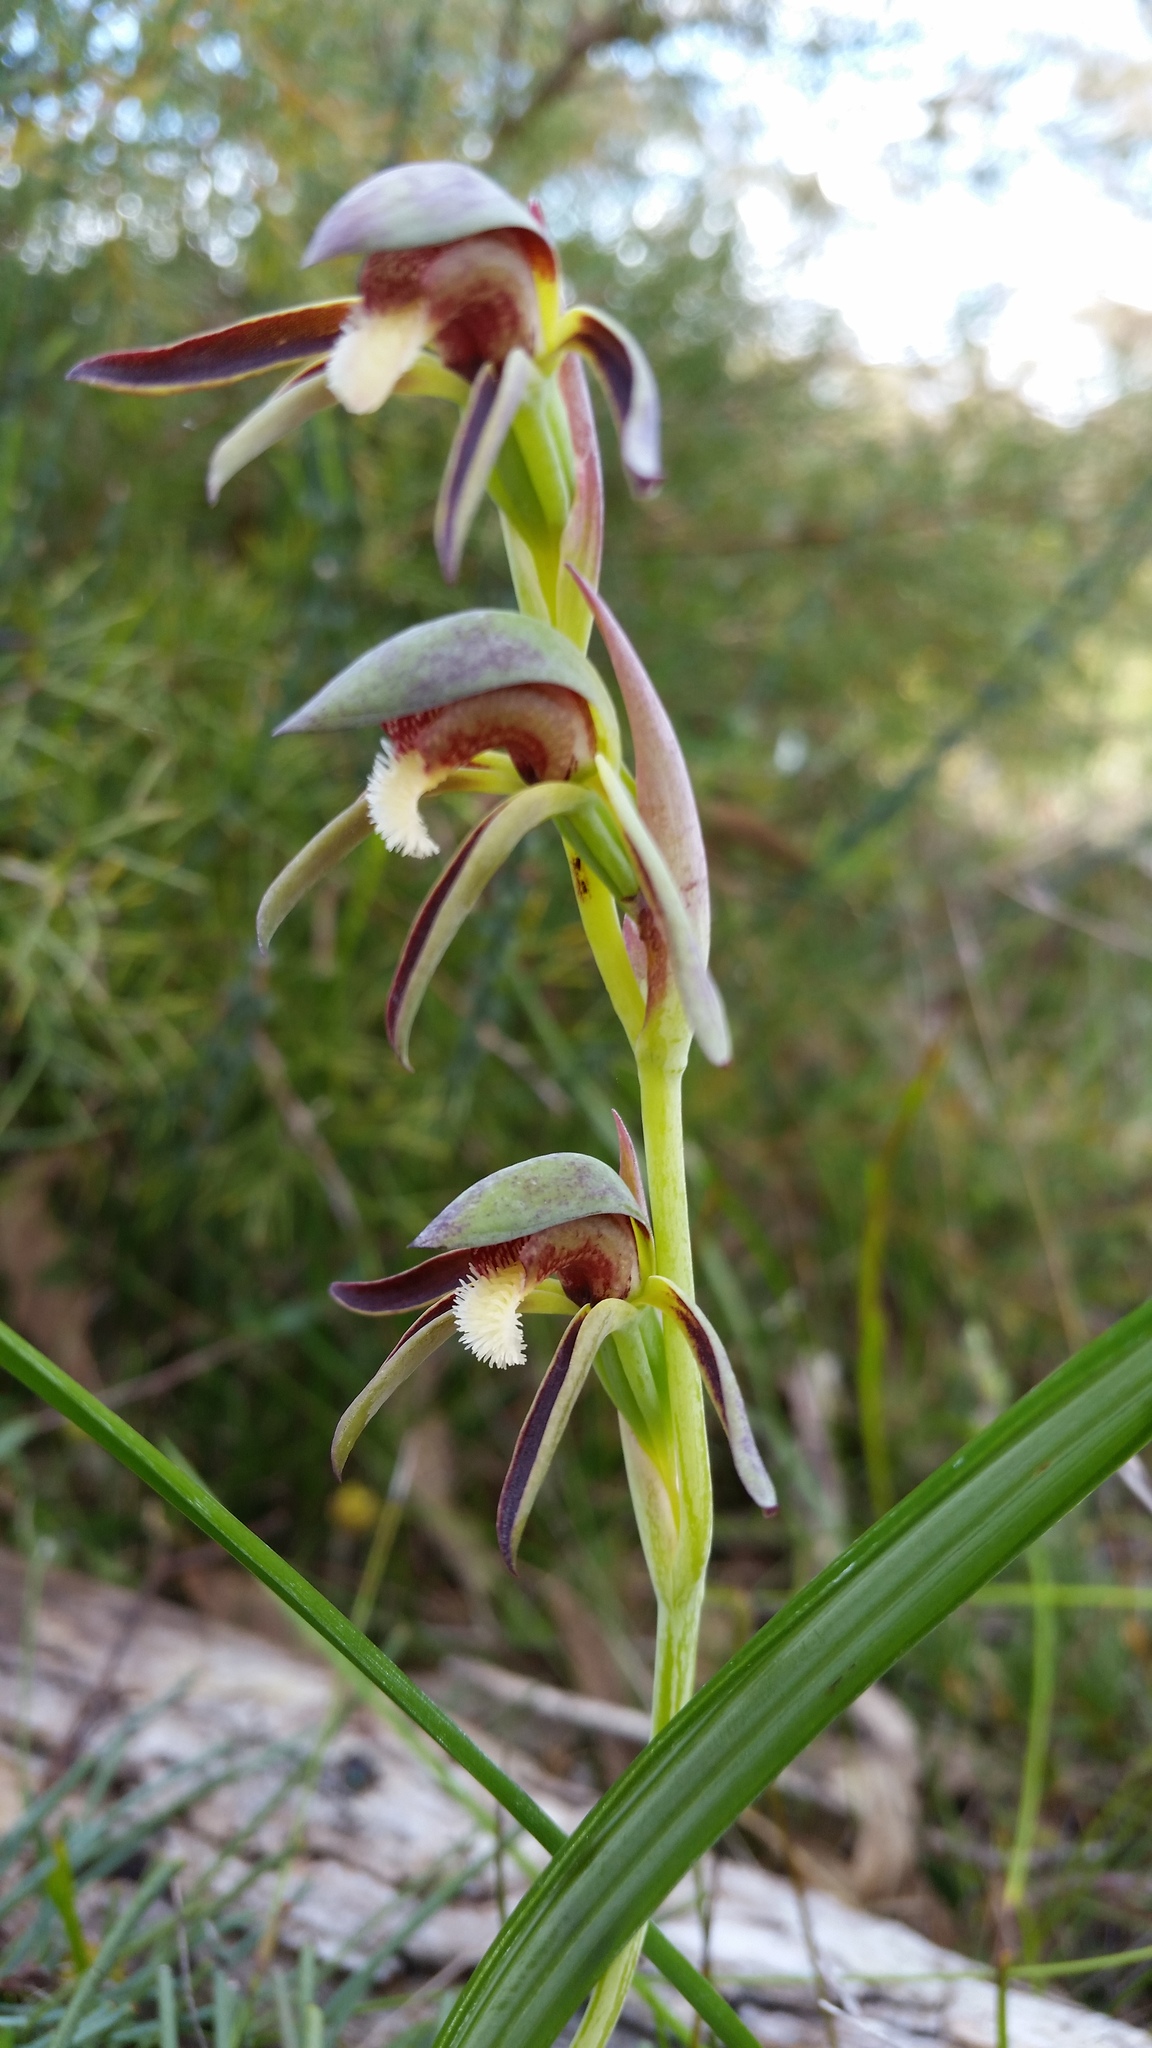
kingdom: Plantae
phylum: Tracheophyta
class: Liliopsida
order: Asparagales
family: Orchidaceae
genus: Lyperanthus
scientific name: Lyperanthus serratus
